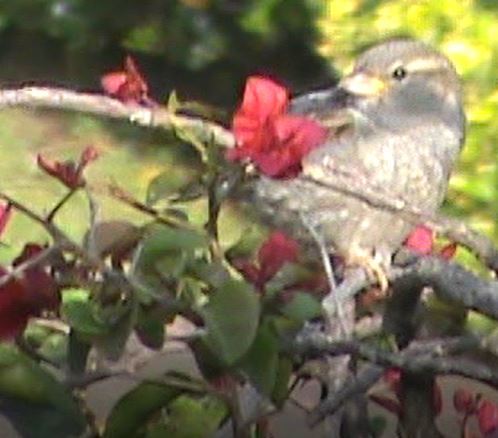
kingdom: Animalia
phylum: Chordata
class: Aves
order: Passeriformes
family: Passeridae
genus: Passer
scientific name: Passer domesticus
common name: House sparrow
